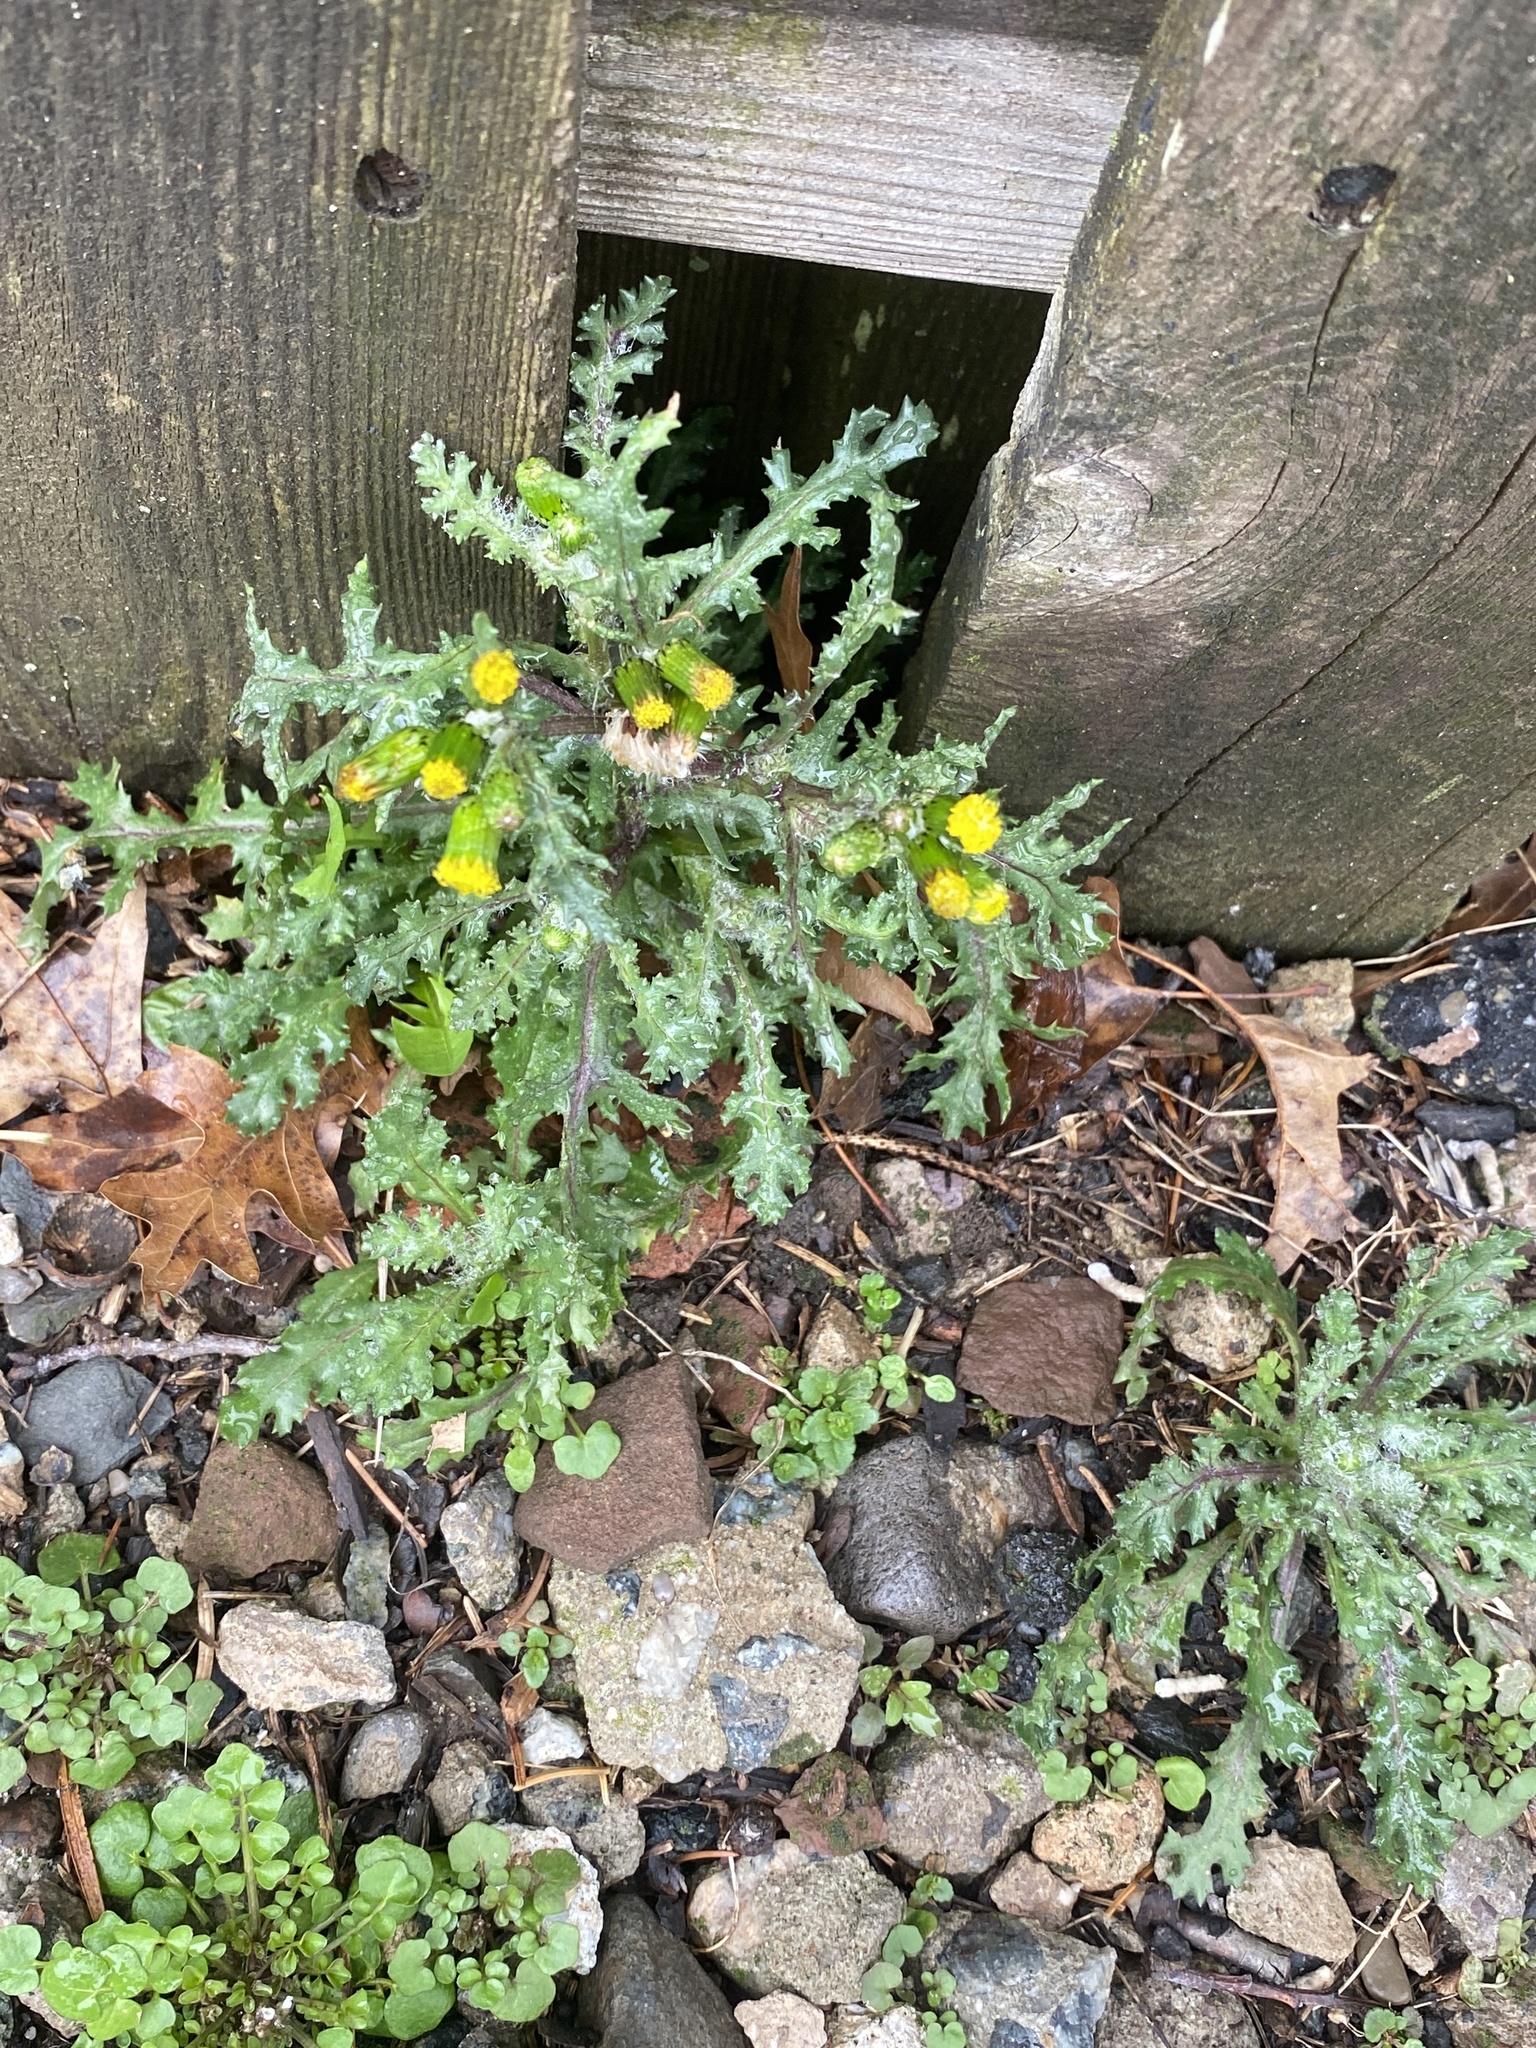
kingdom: Plantae
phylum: Tracheophyta
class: Magnoliopsida
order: Asterales
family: Asteraceae
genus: Senecio
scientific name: Senecio vulgaris
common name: Old-man-in-the-spring
